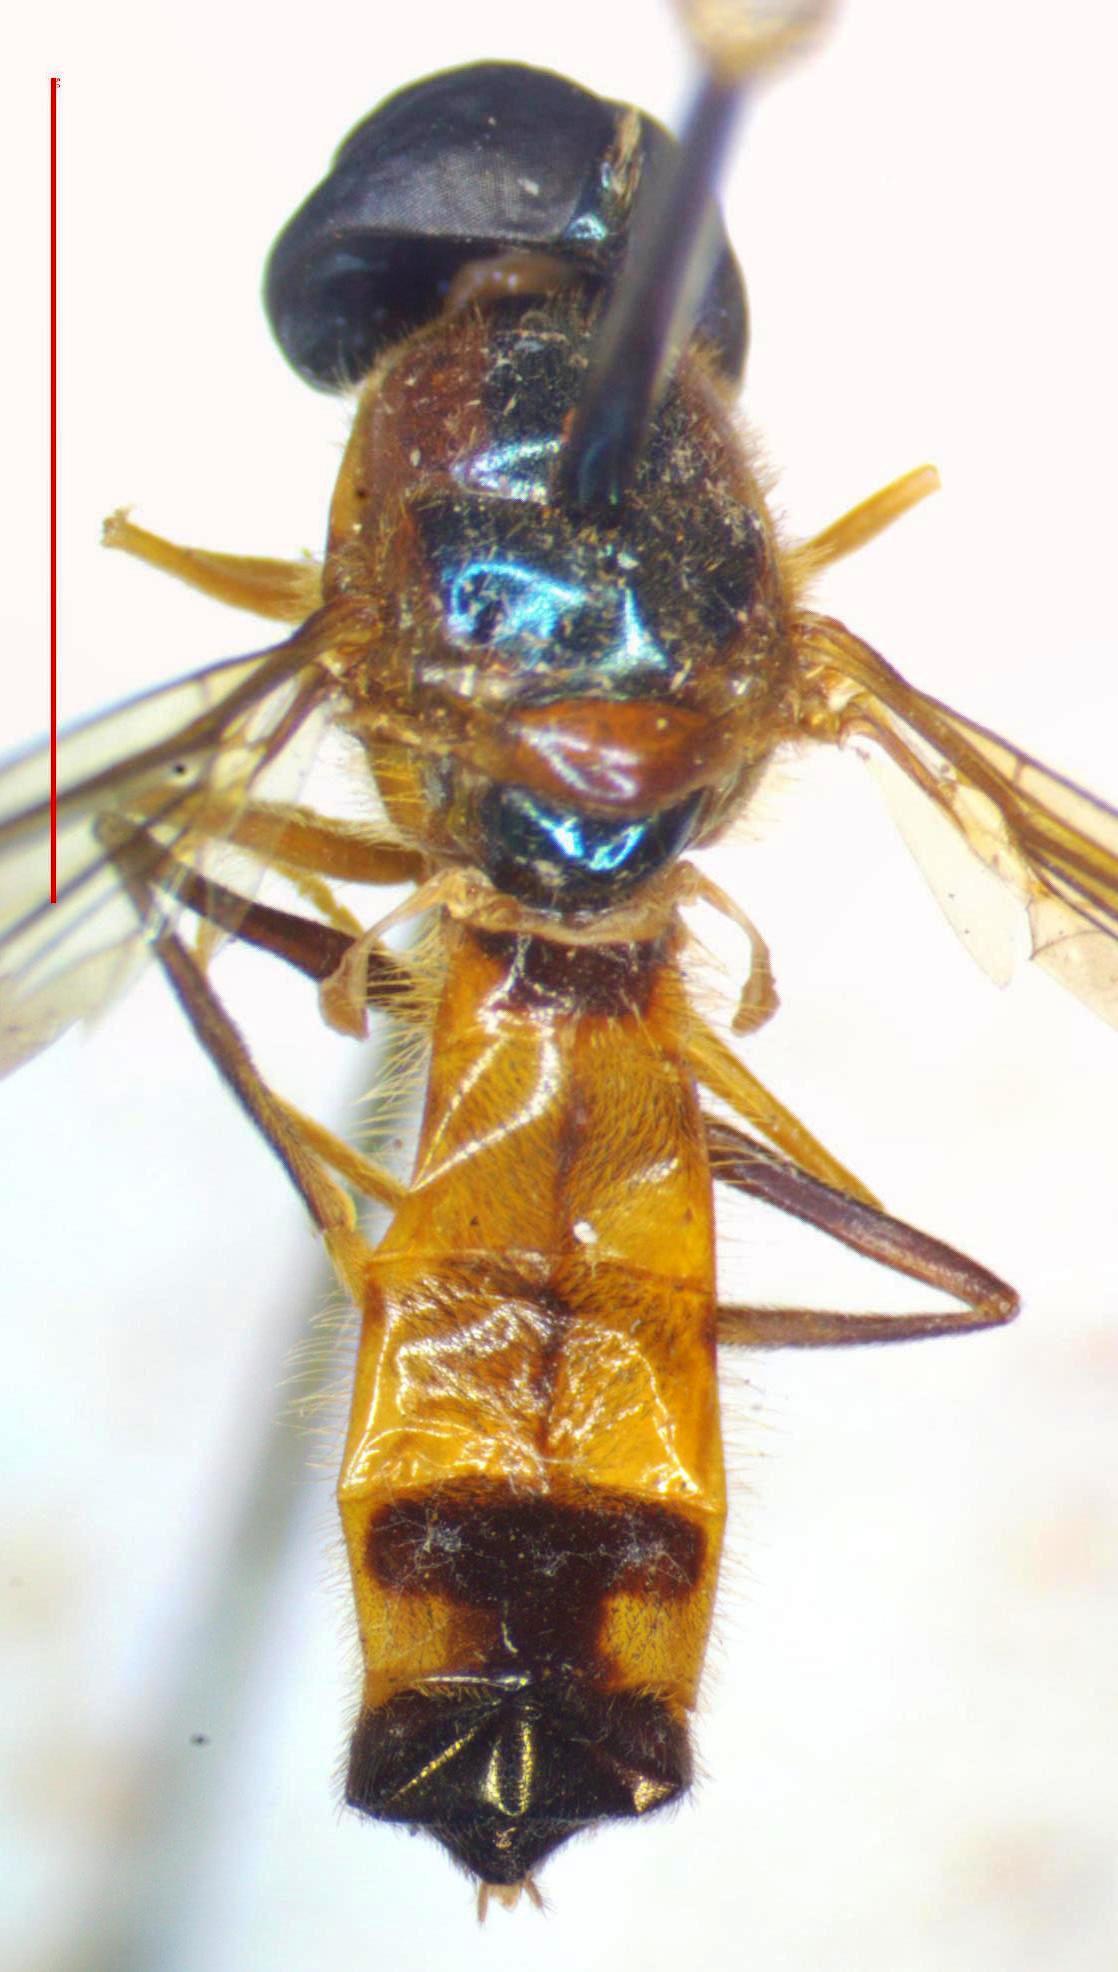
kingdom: Animalia
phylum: Arthropoda
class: Insecta
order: Diptera
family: Stratiomyidae
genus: Sargus
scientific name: Sargus yerbabuena
